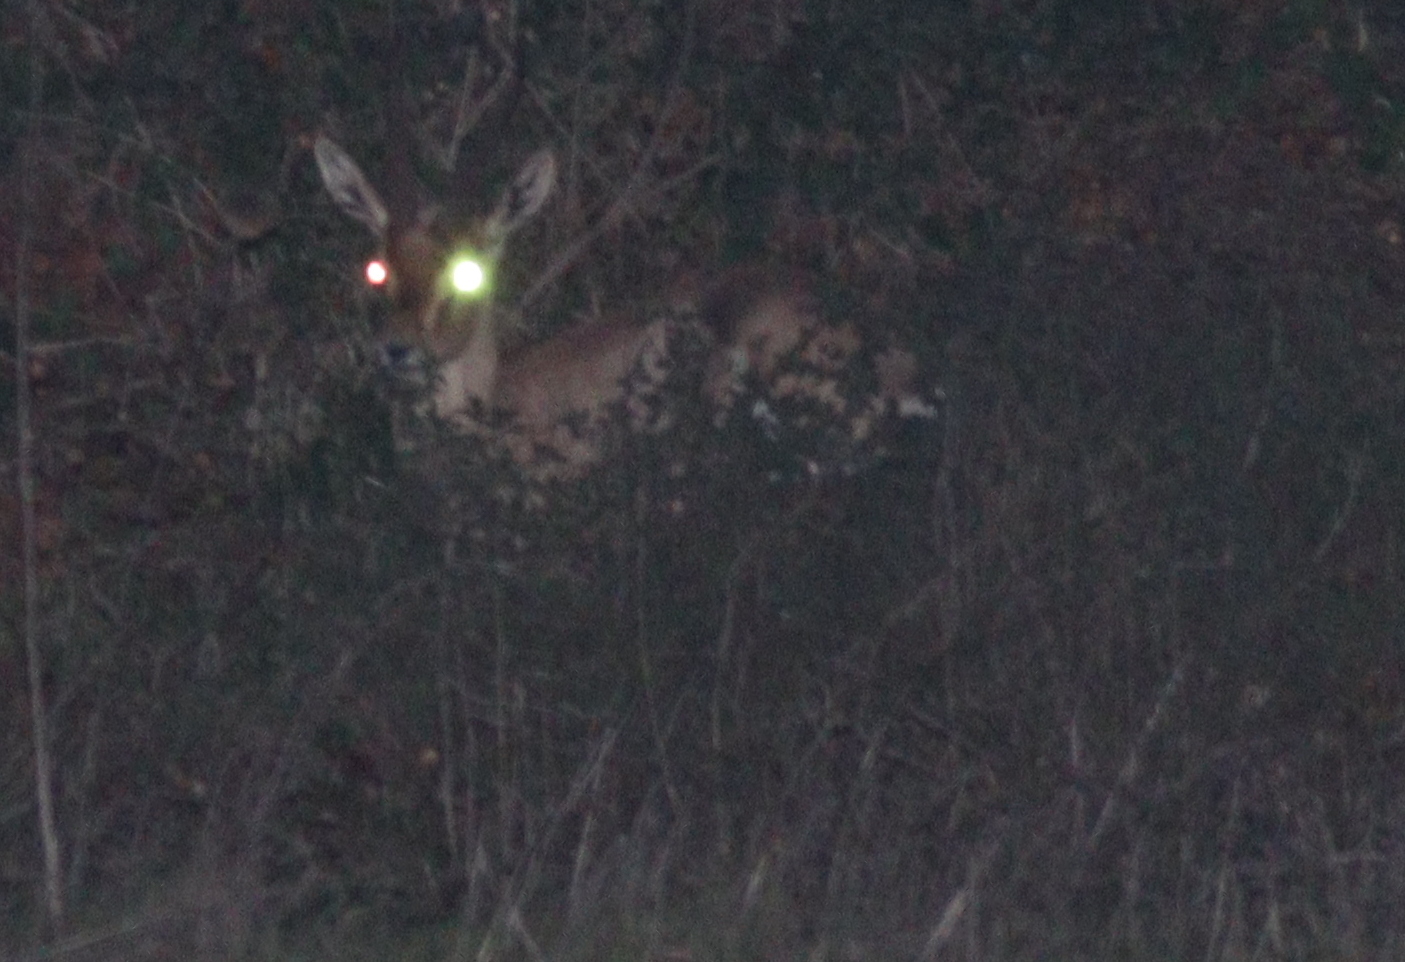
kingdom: Animalia
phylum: Chordata
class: Mammalia
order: Artiodactyla
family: Bovidae
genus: Gazella
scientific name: Gazella gazella
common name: Mountain gazelle
